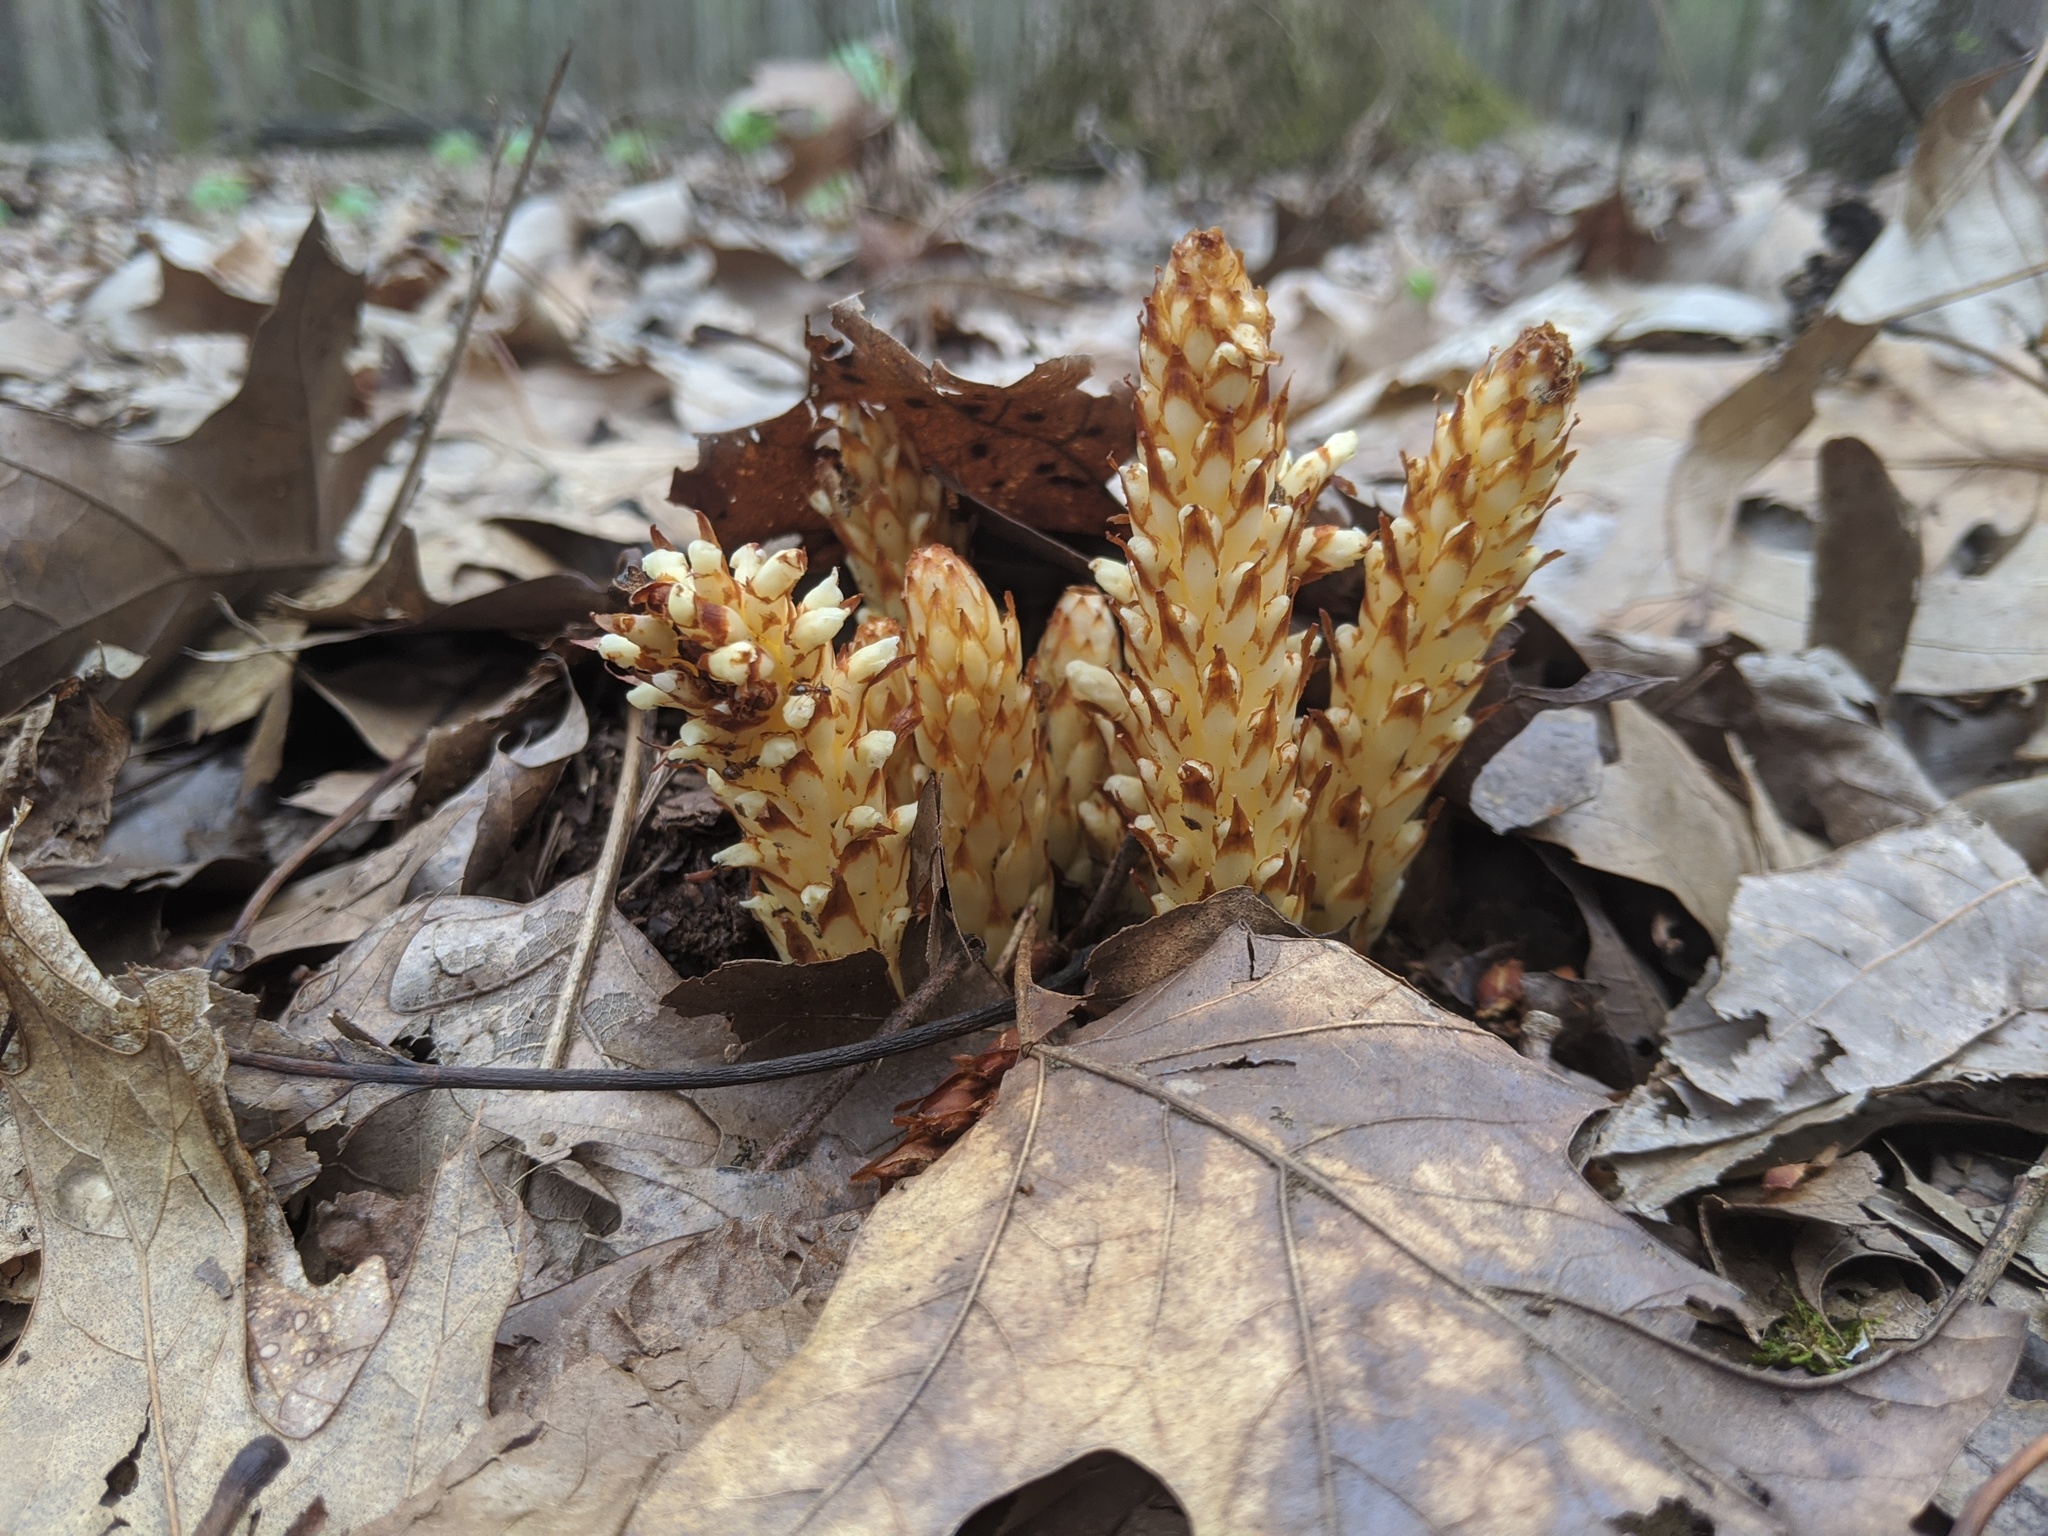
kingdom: Plantae
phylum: Tracheophyta
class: Magnoliopsida
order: Lamiales
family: Orobanchaceae
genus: Conopholis
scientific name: Conopholis americana
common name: American cancer-root
